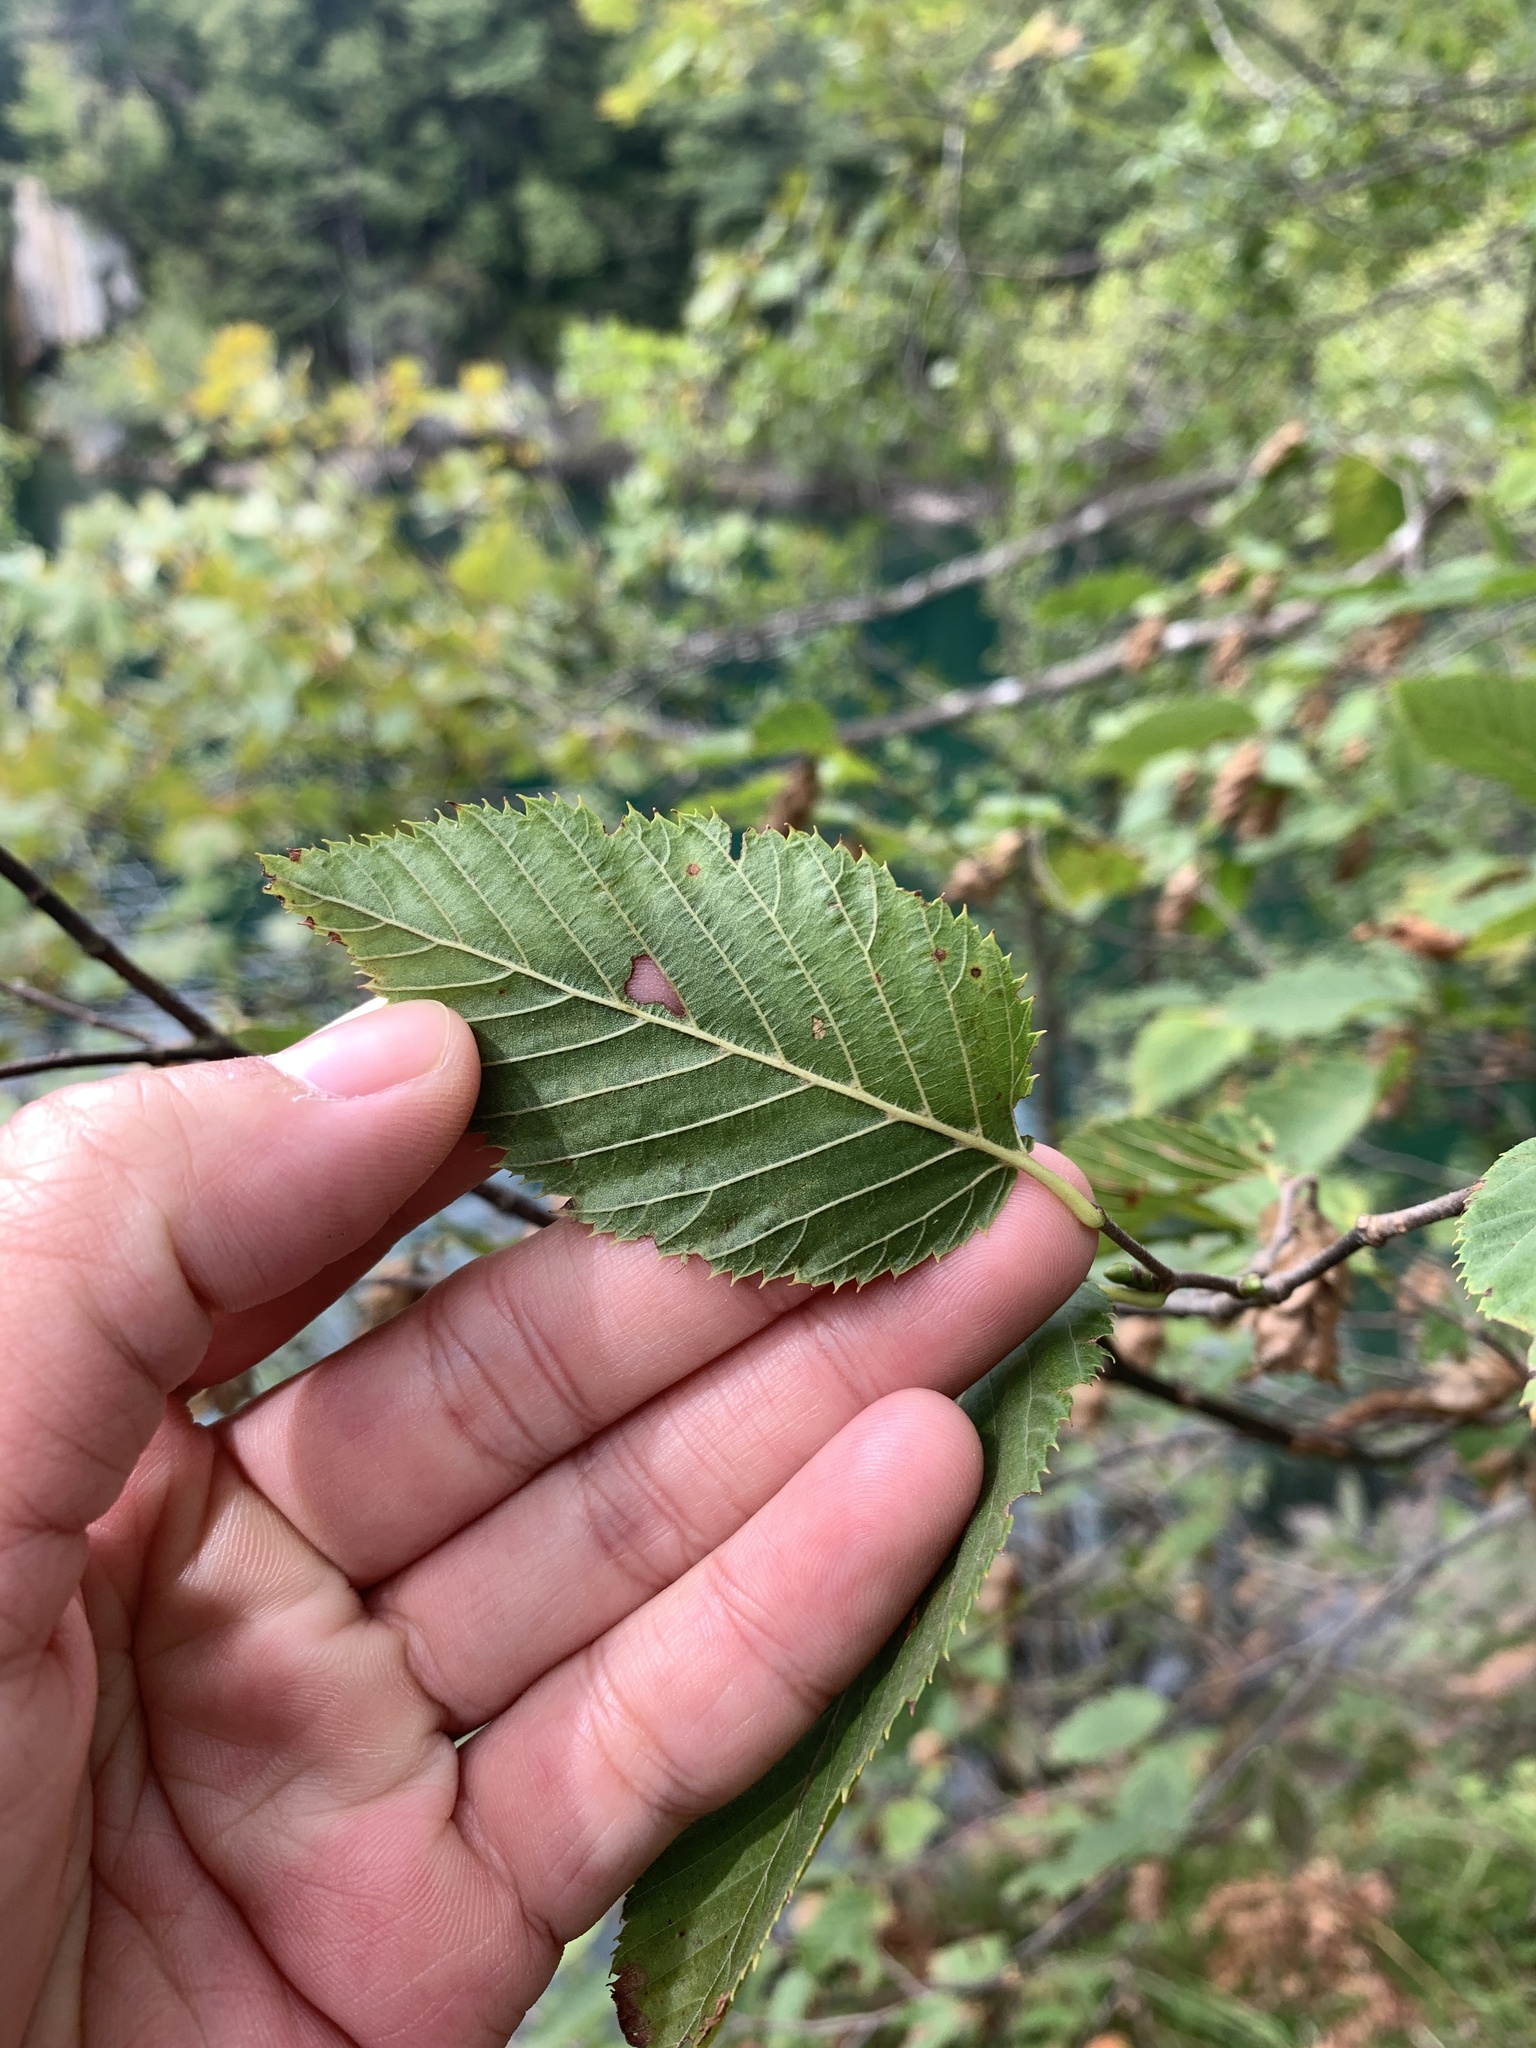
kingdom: Plantae
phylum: Tracheophyta
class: Magnoliopsida
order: Fagales
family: Betulaceae
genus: Ostrya
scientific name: Ostrya carpinifolia
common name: European hop-hornbeam
